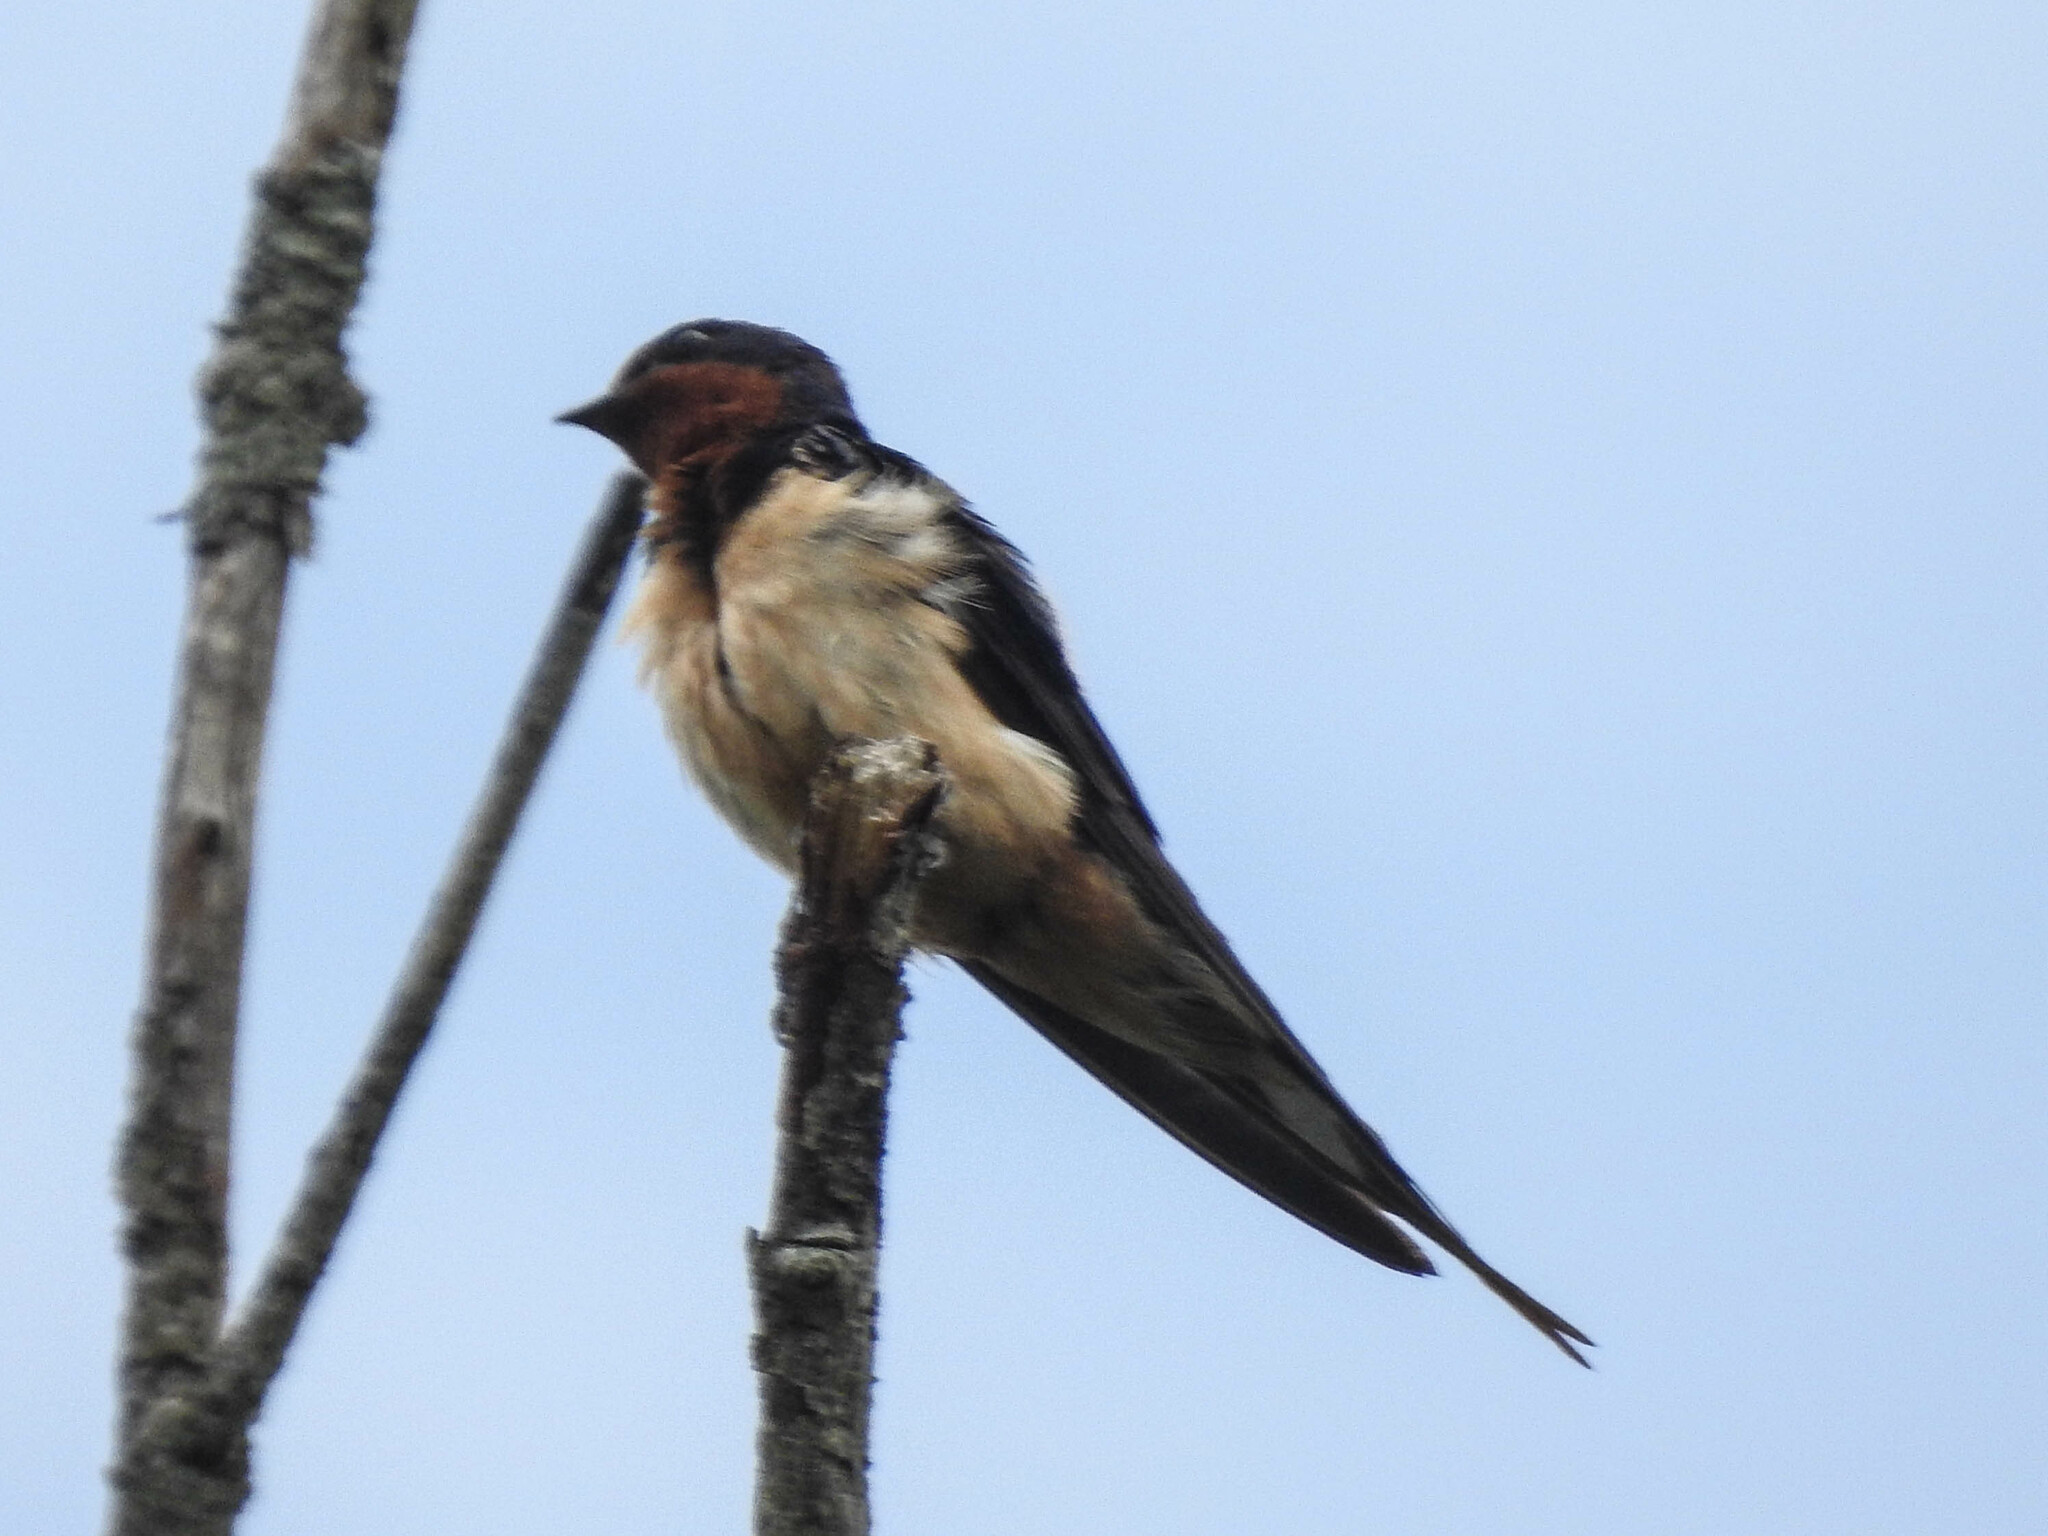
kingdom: Animalia
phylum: Chordata
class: Aves
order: Passeriformes
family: Hirundinidae
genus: Hirundo
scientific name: Hirundo rustica
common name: Barn swallow
